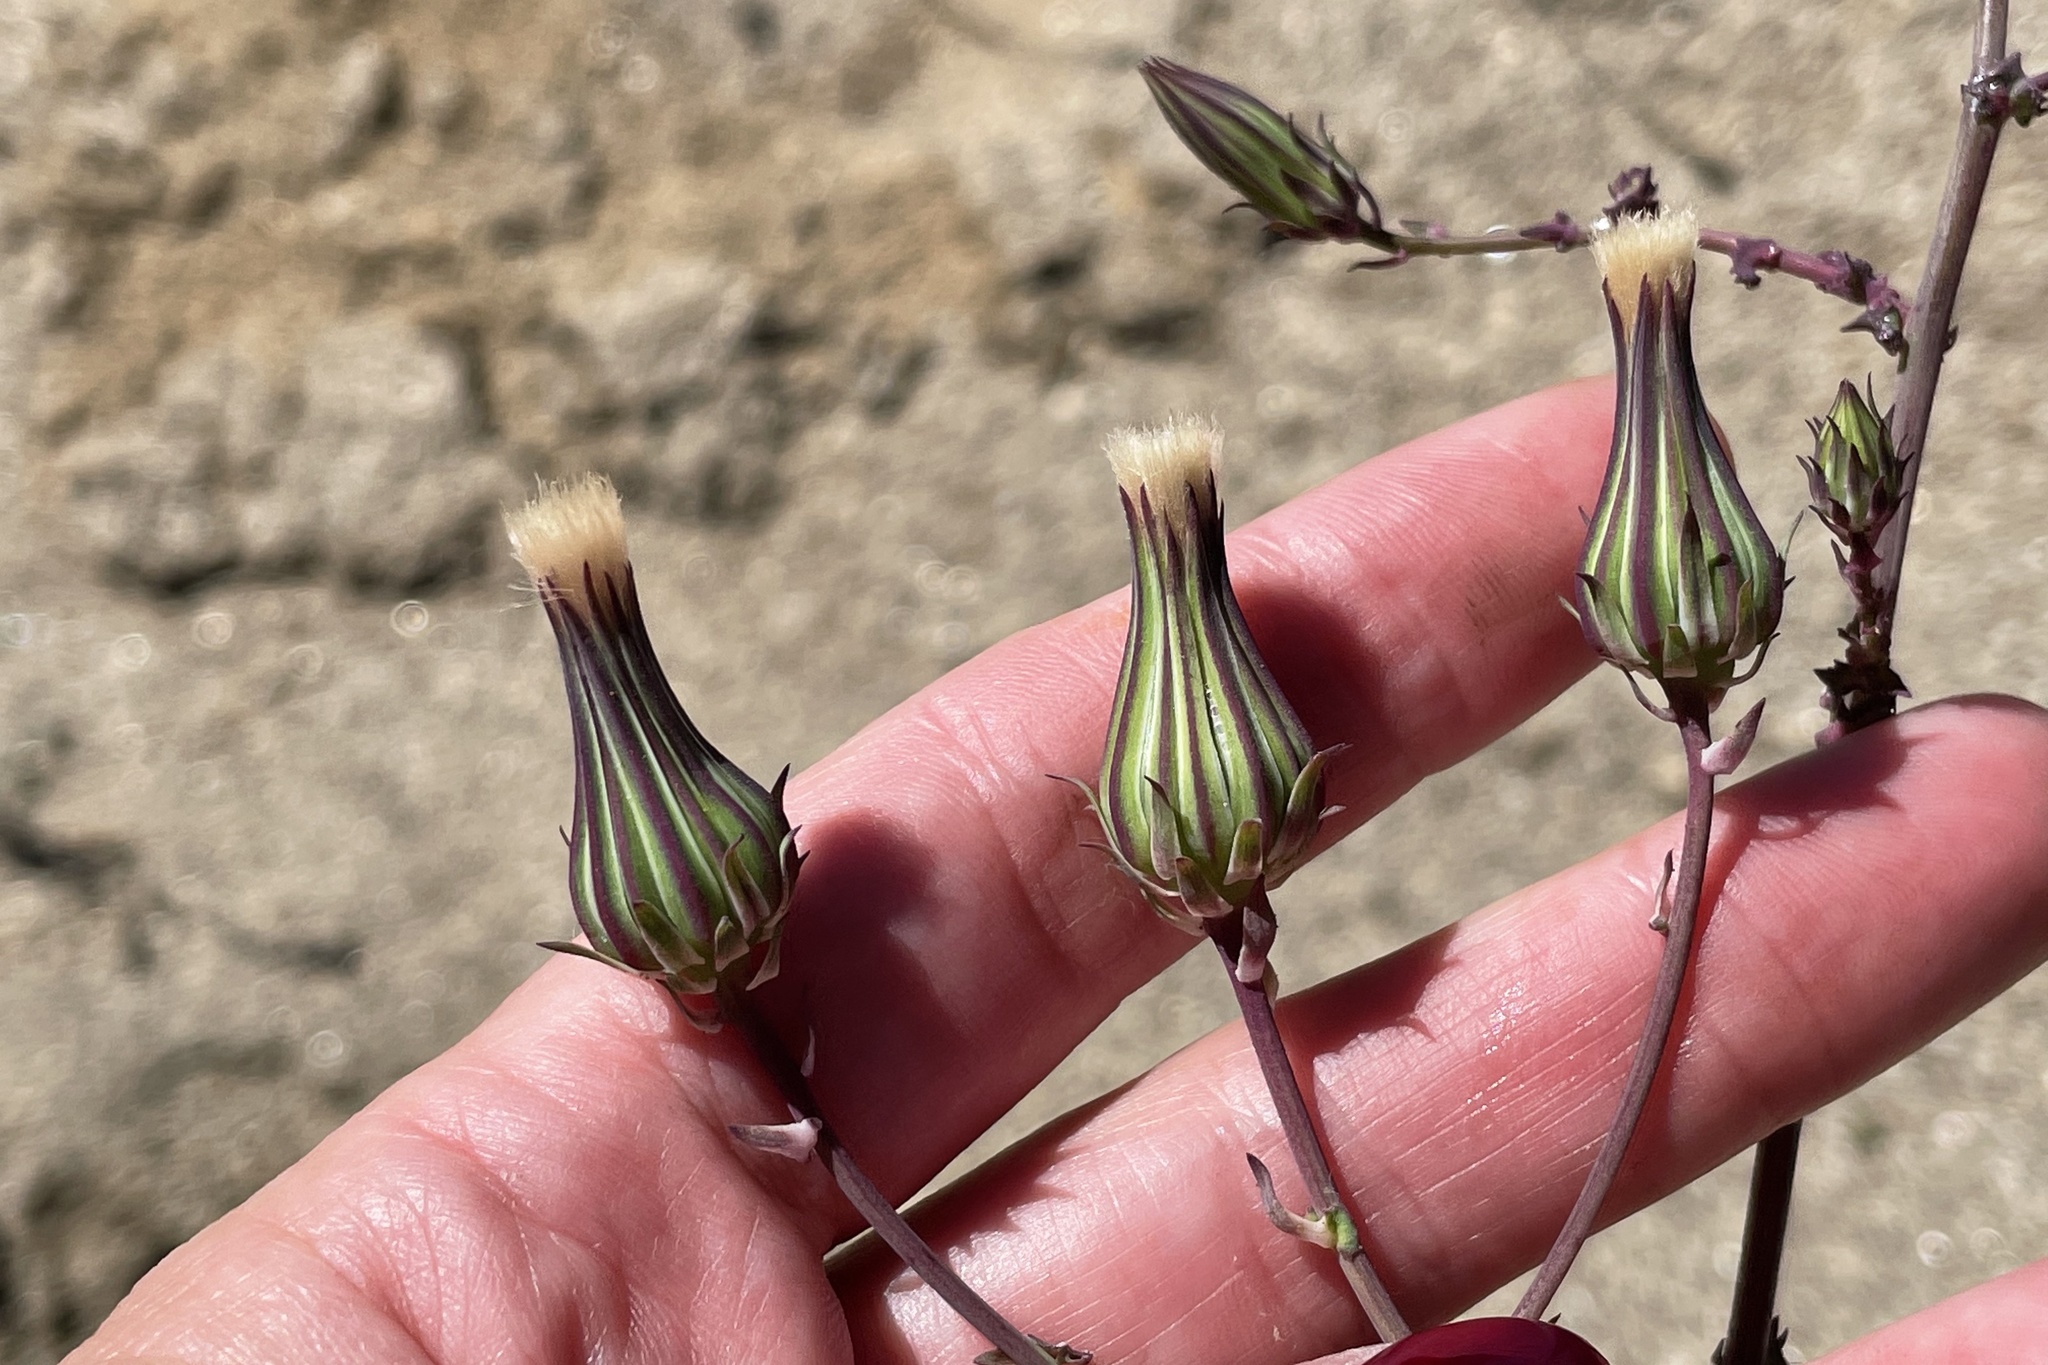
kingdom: Plantae
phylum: Tracheophyta
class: Magnoliopsida
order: Asterales
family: Asteraceae
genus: Rafinesquia
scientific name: Rafinesquia californica
